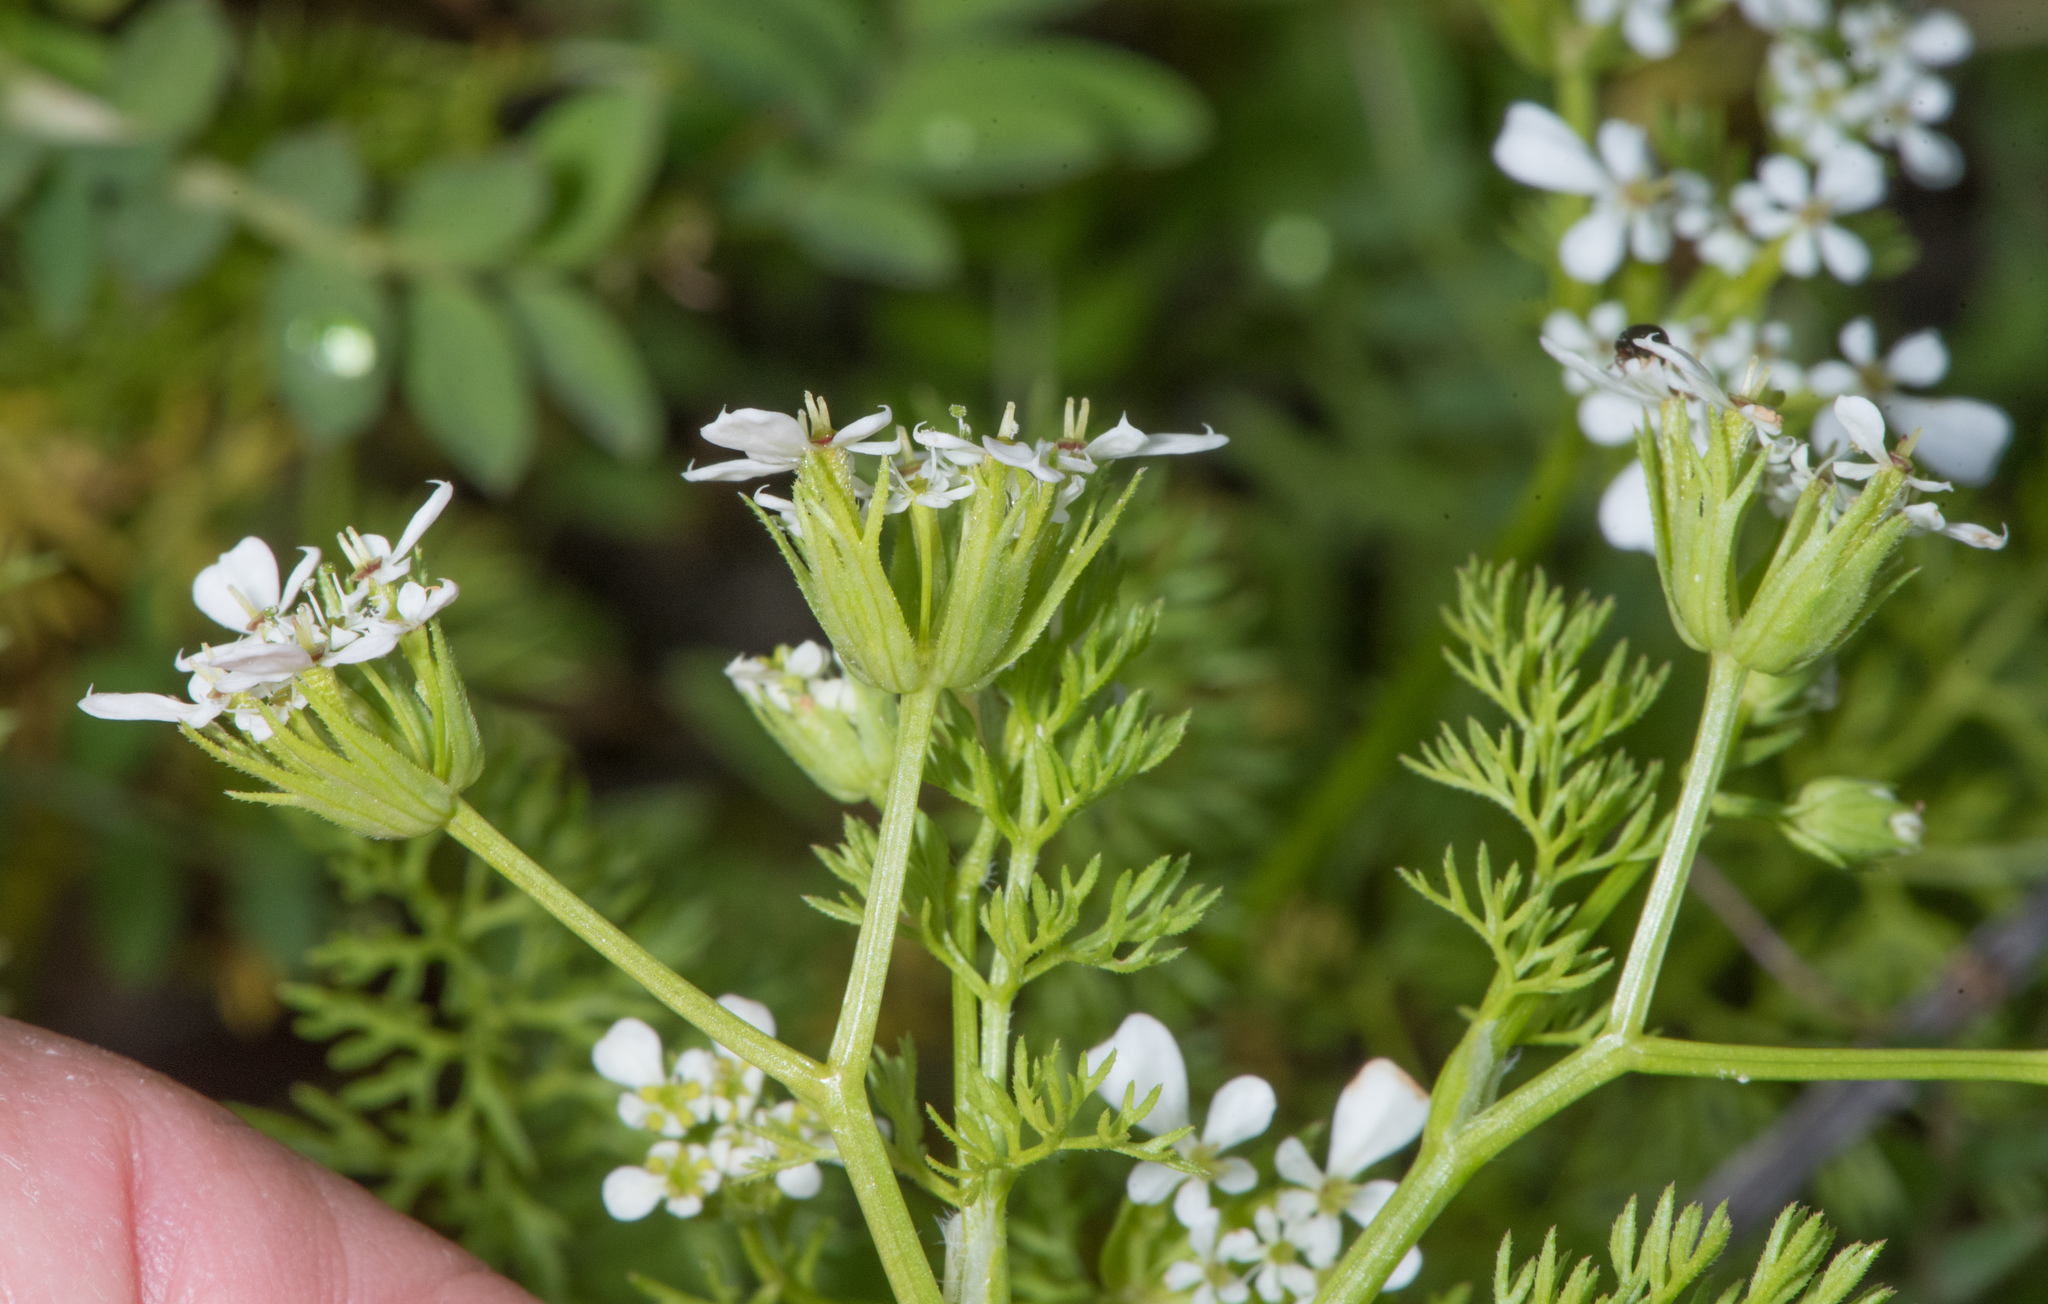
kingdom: Plantae
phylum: Tracheophyta
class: Magnoliopsida
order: Apiales
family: Apiaceae
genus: Scandix
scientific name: Scandix pecten-veneris
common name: Shepherd's-needle
